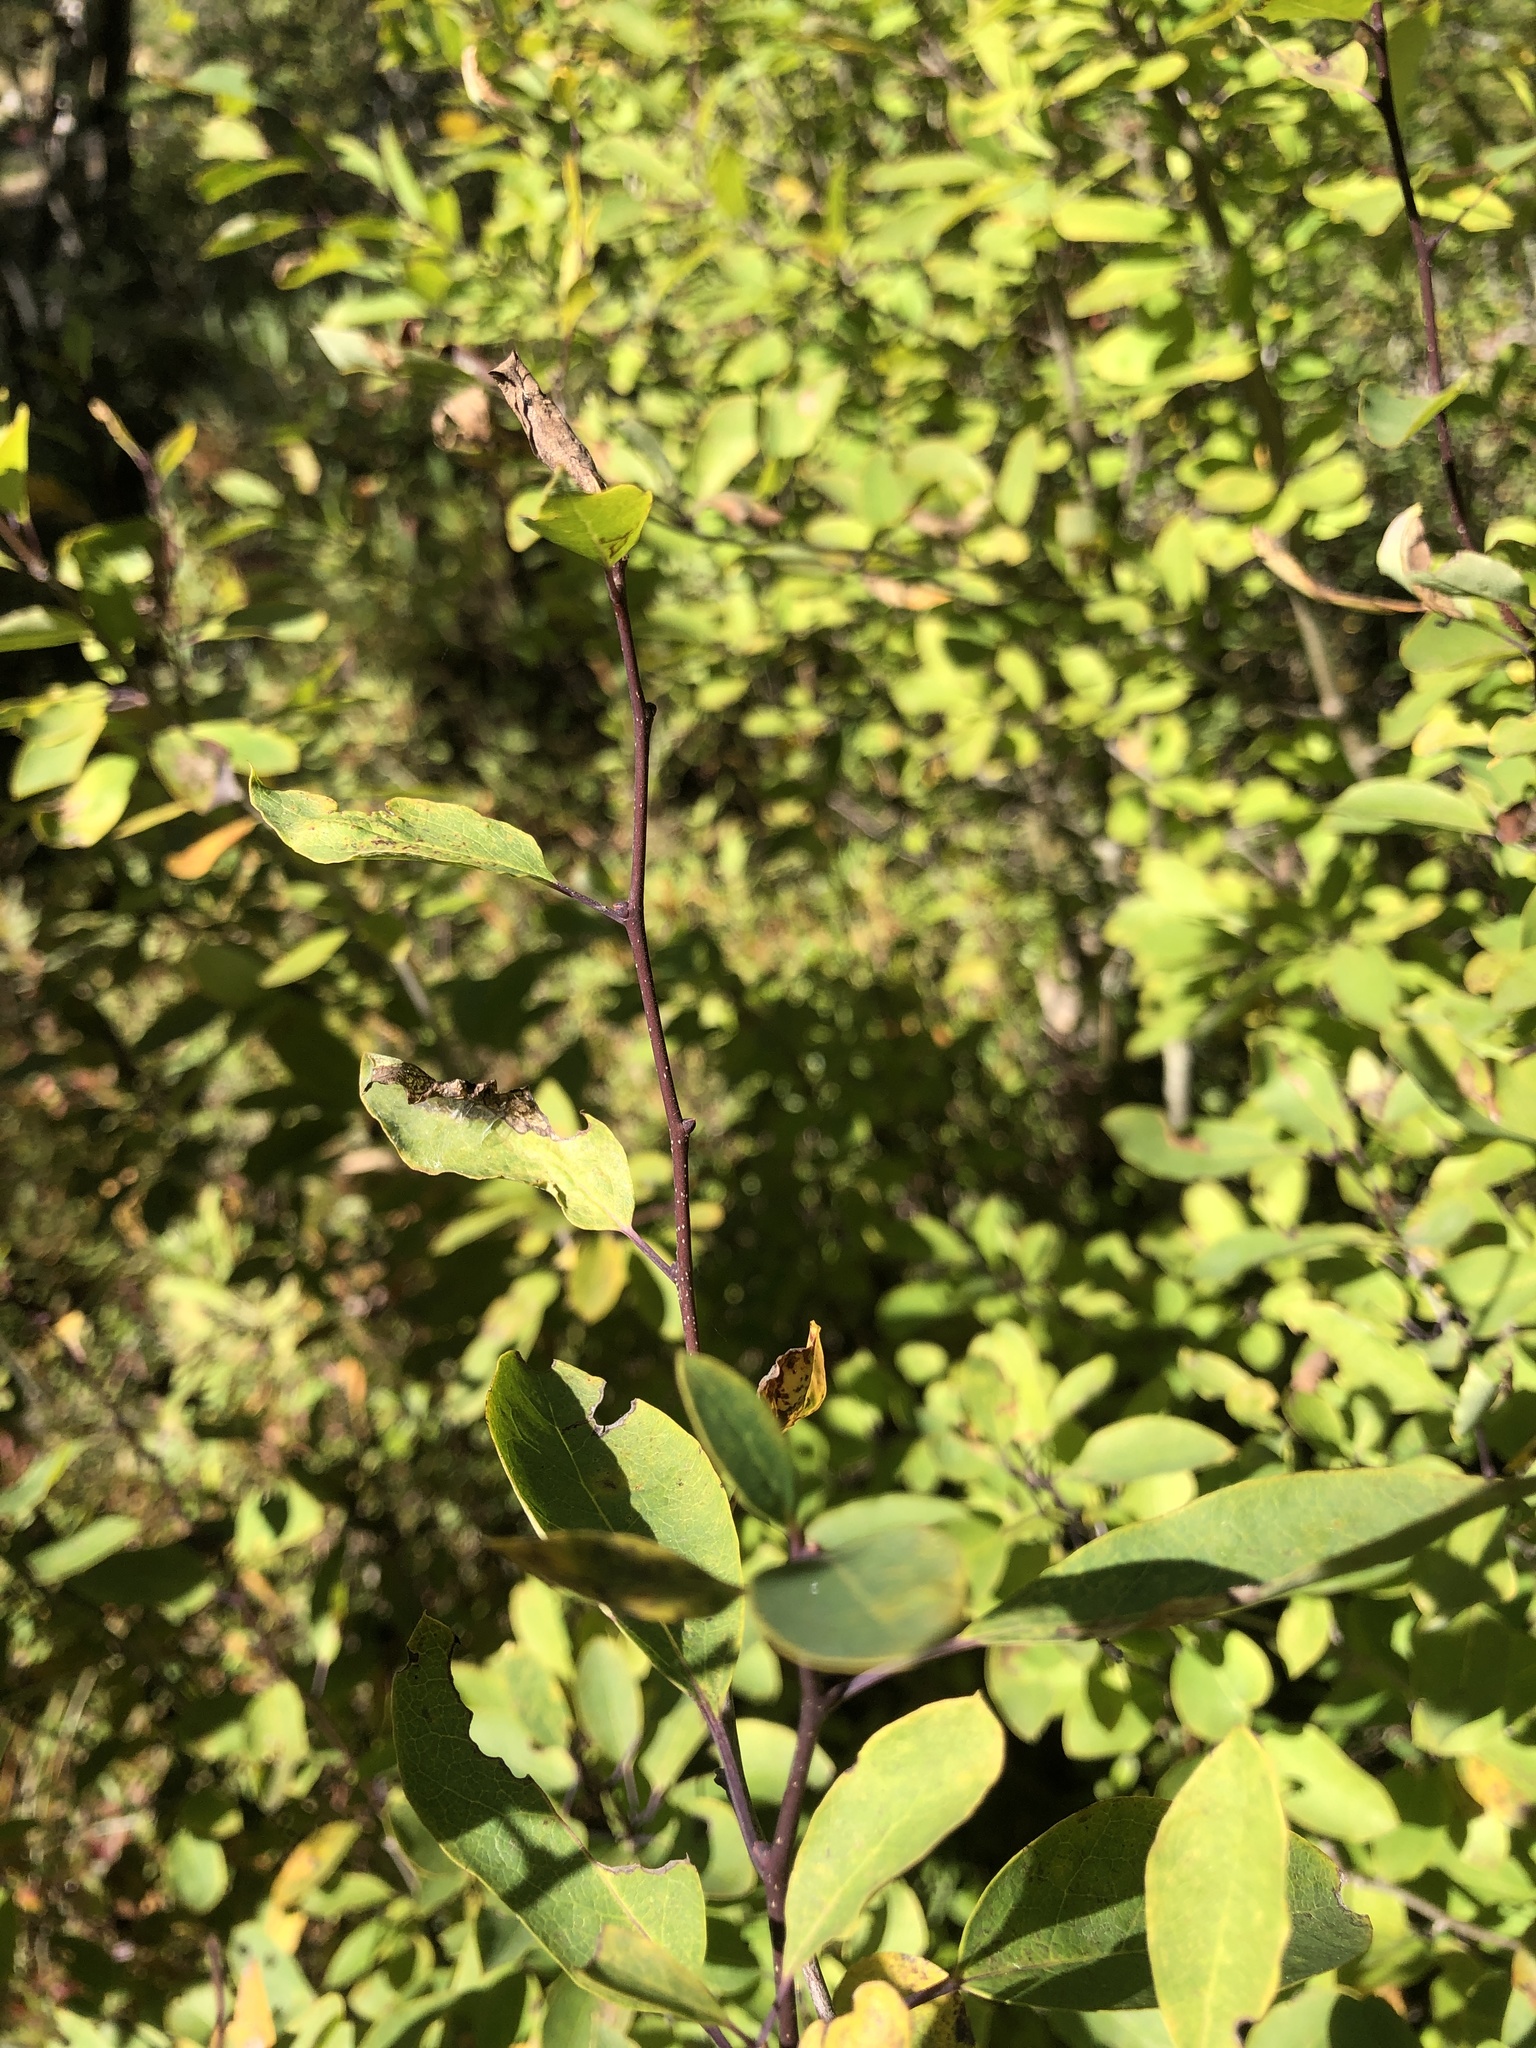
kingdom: Plantae
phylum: Tracheophyta
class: Magnoliopsida
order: Aquifoliales
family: Aquifoliaceae
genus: Ilex
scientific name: Ilex mucronata
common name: Catberry
